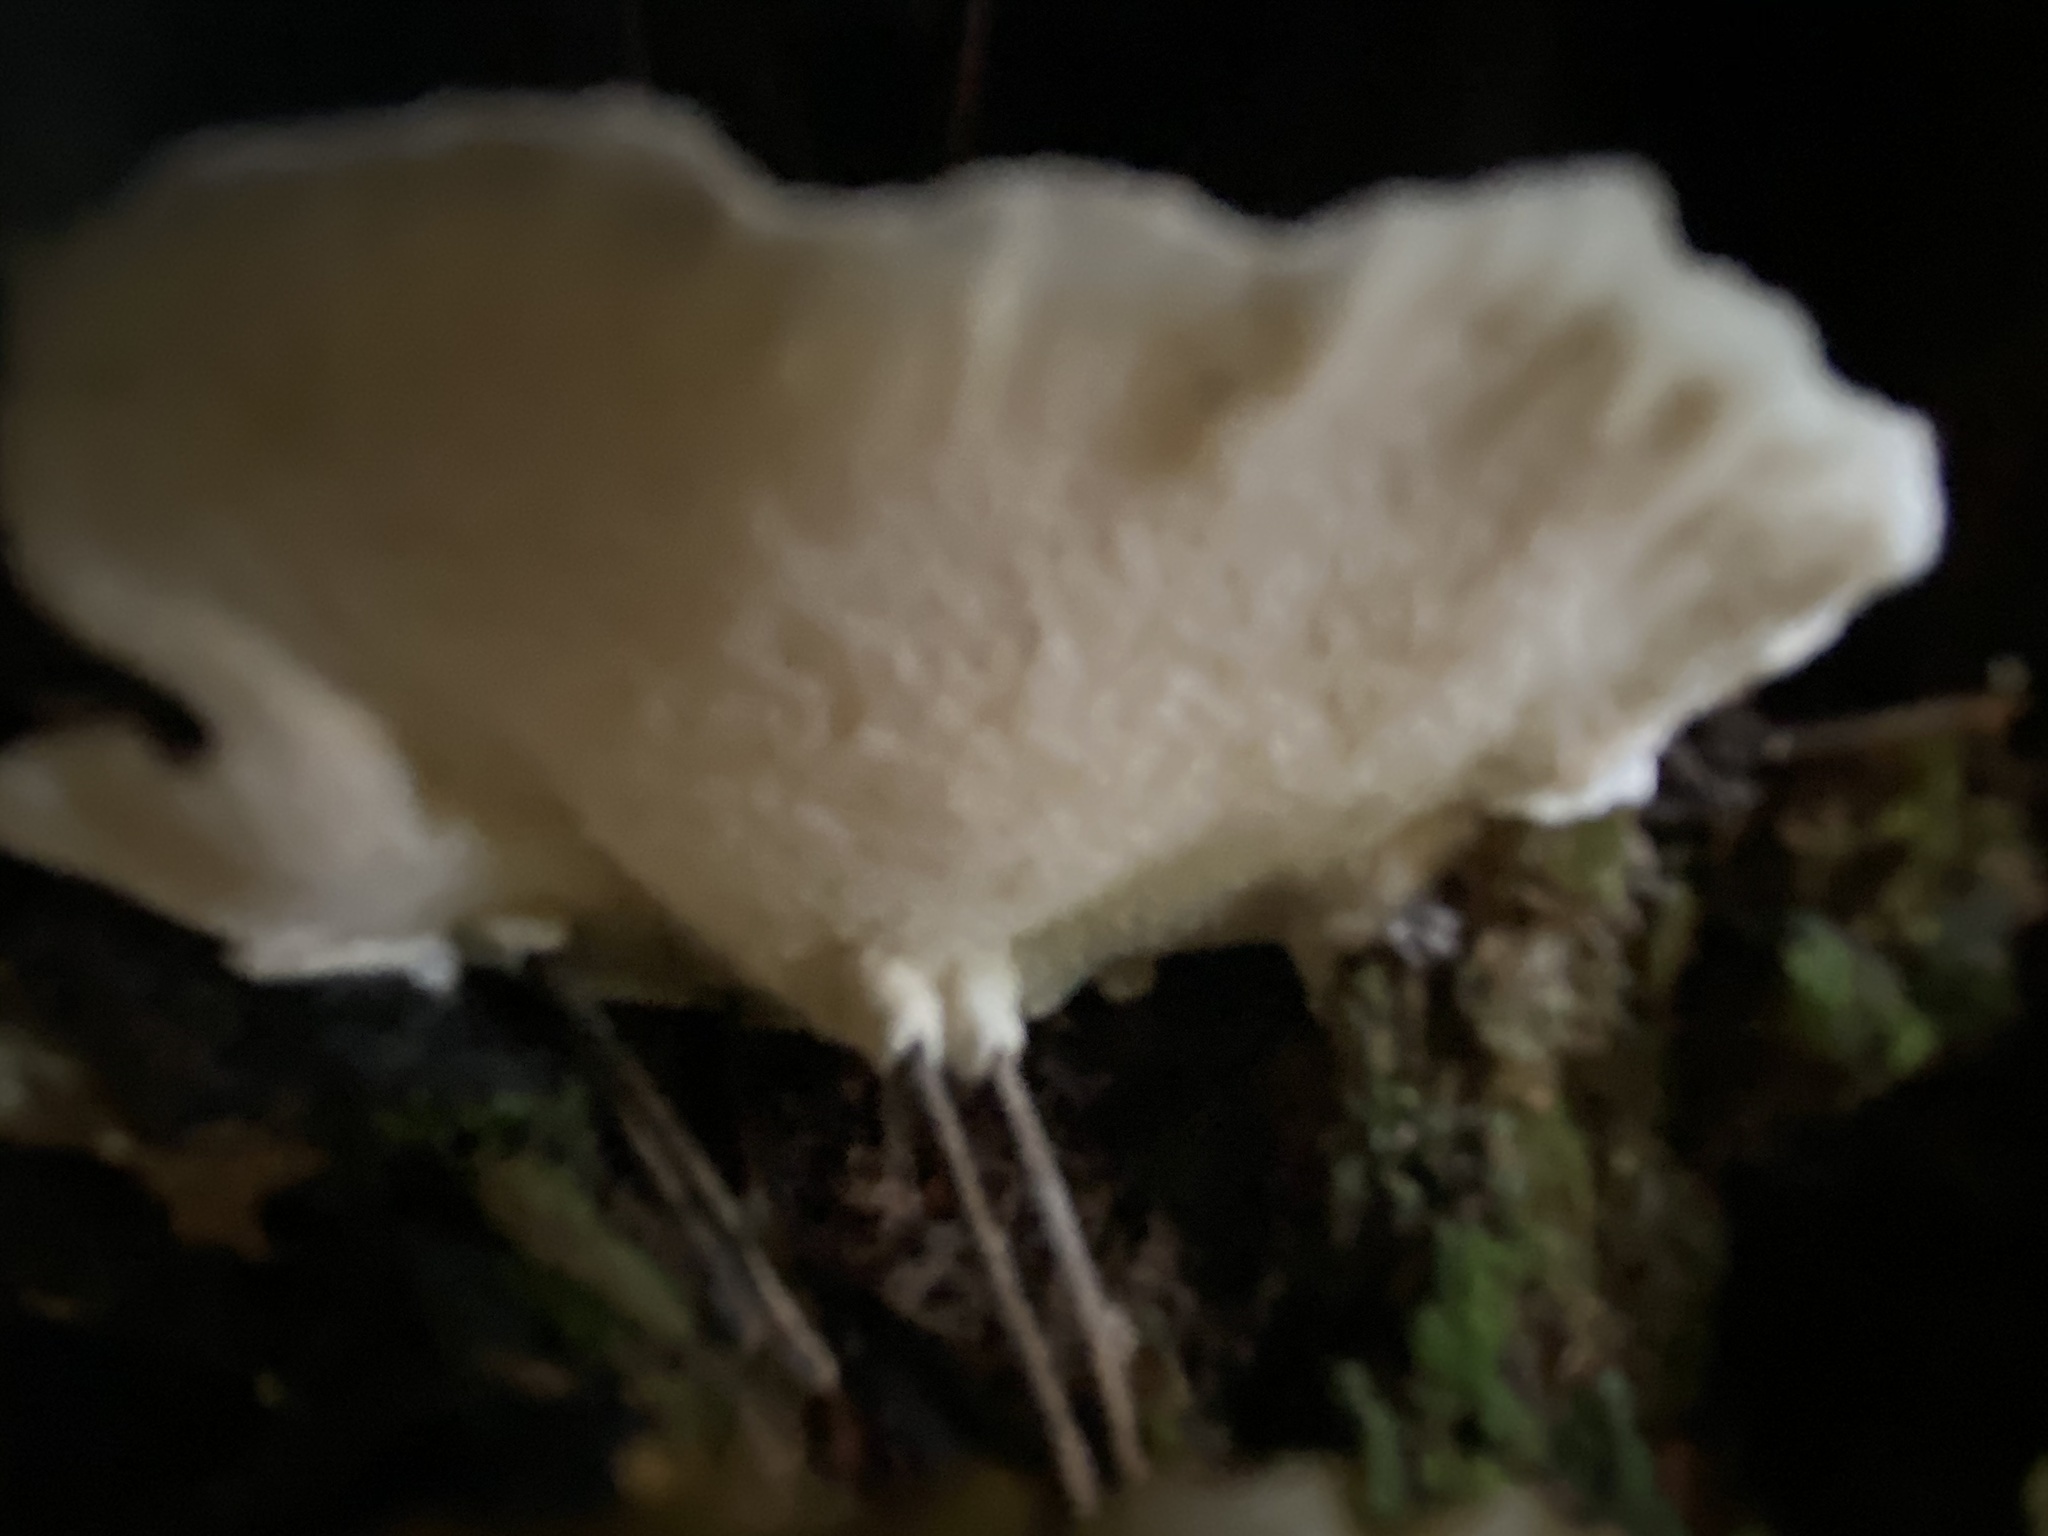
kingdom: Fungi
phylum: Basidiomycota
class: Agaricomycetes
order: Polyporales
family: Fomitopsidaceae
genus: Fomitopsis
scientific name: Fomitopsis pinicola
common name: Red-belted bracket
